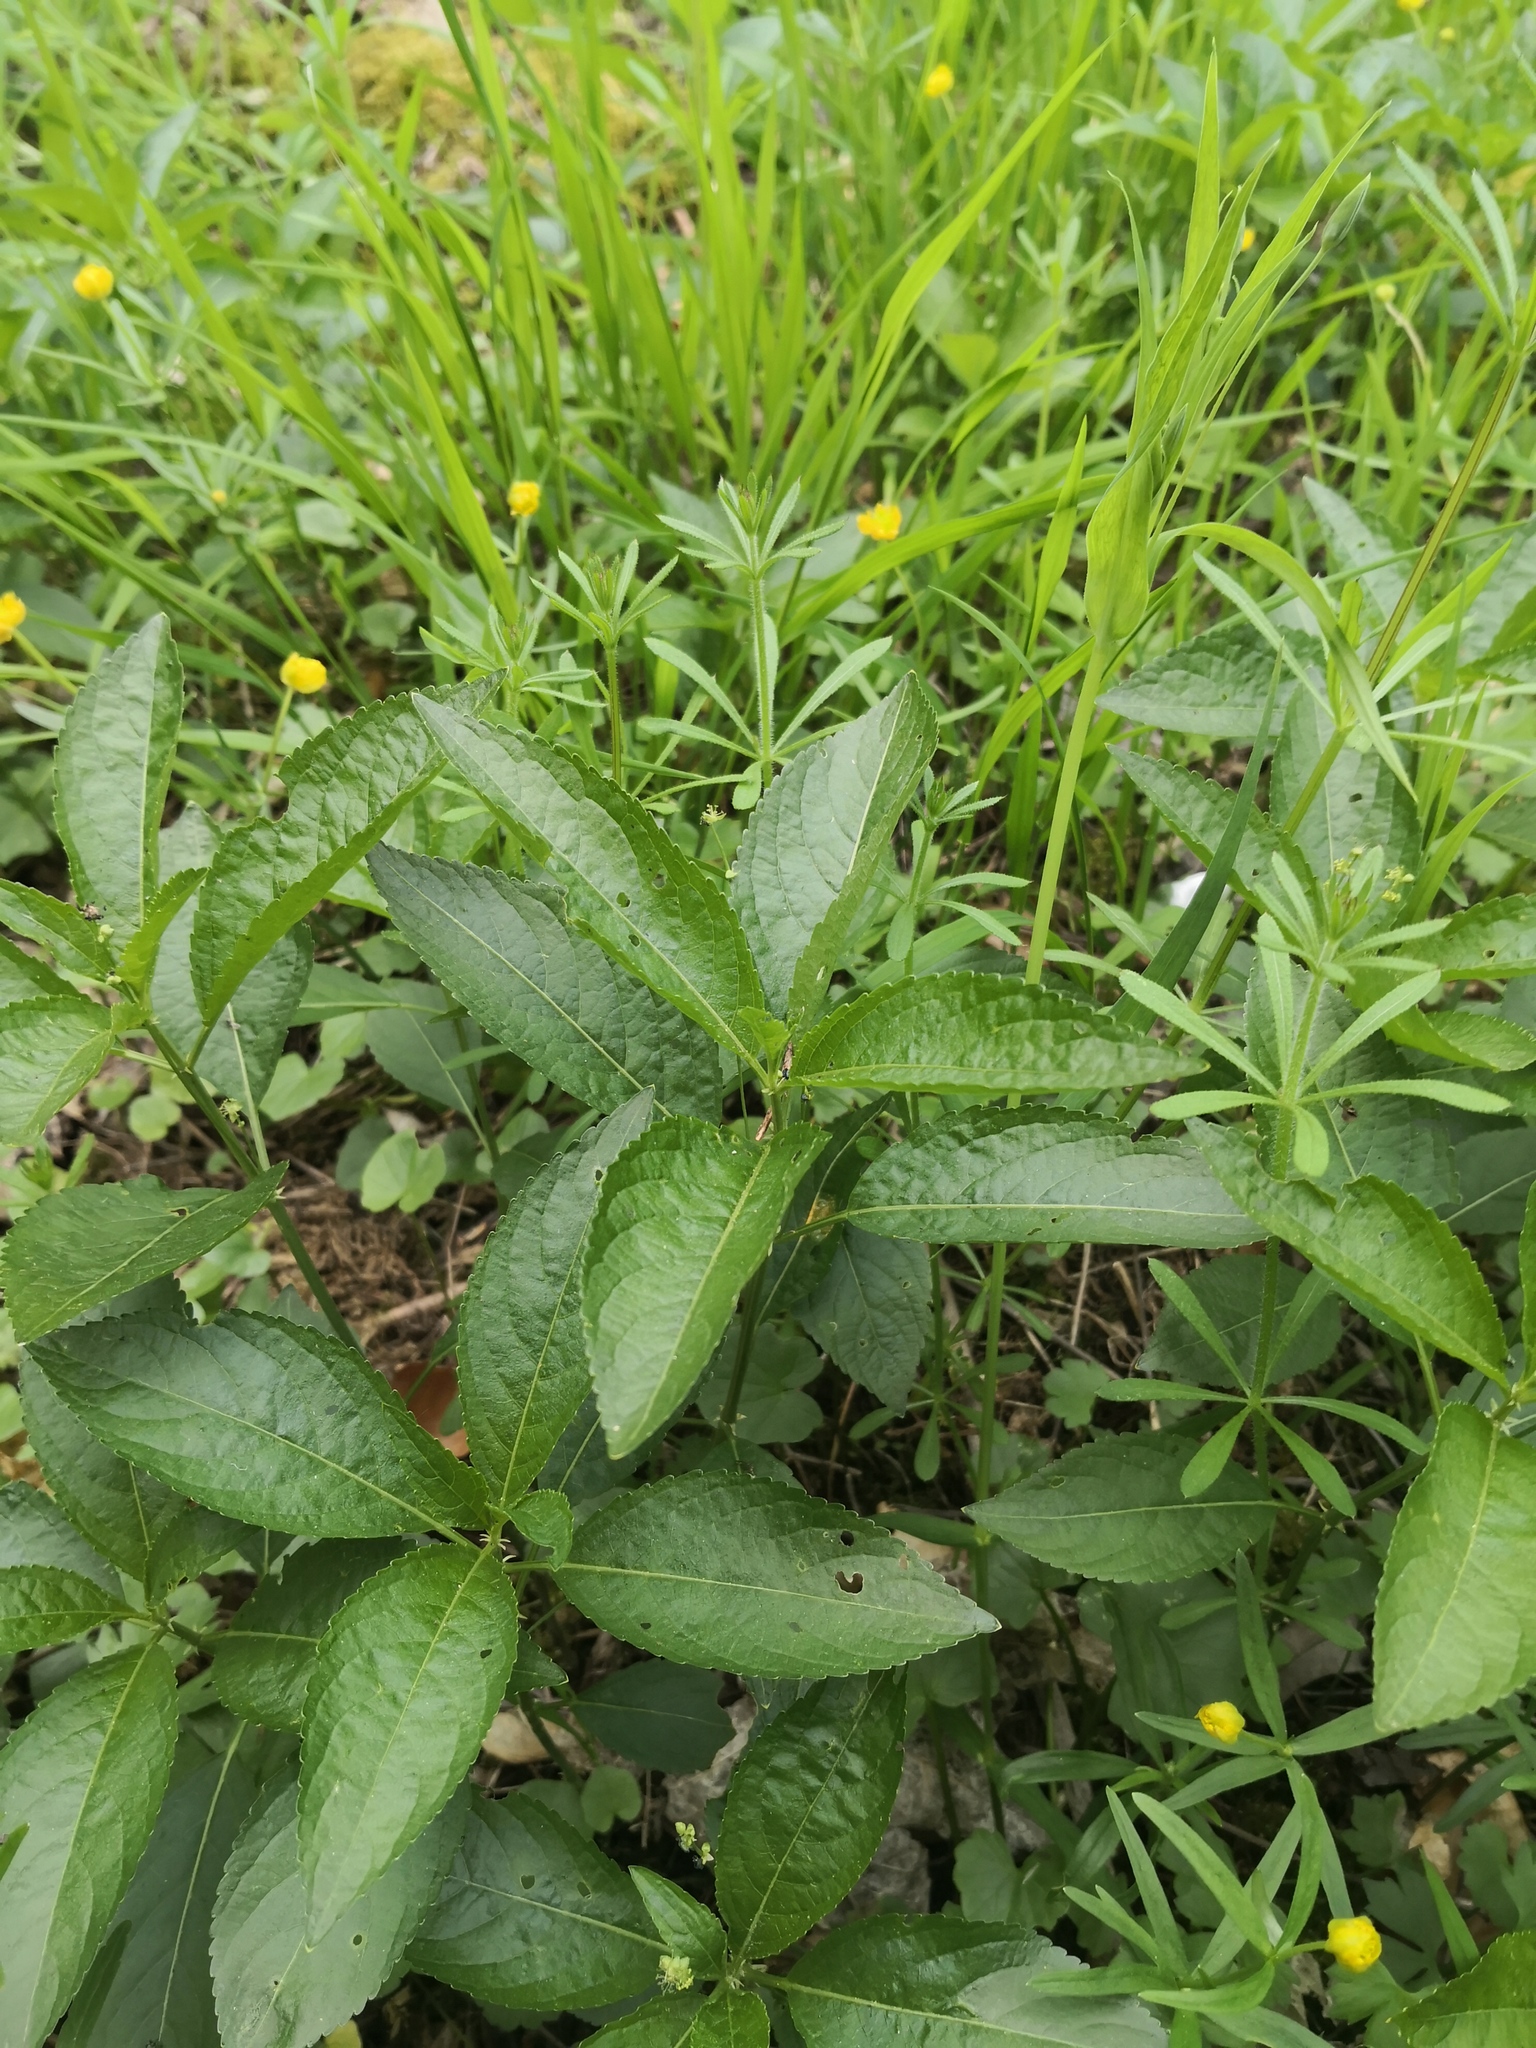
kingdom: Plantae
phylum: Tracheophyta
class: Magnoliopsida
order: Malpighiales
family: Euphorbiaceae
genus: Mercurialis
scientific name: Mercurialis perennis
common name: Dog mercury
